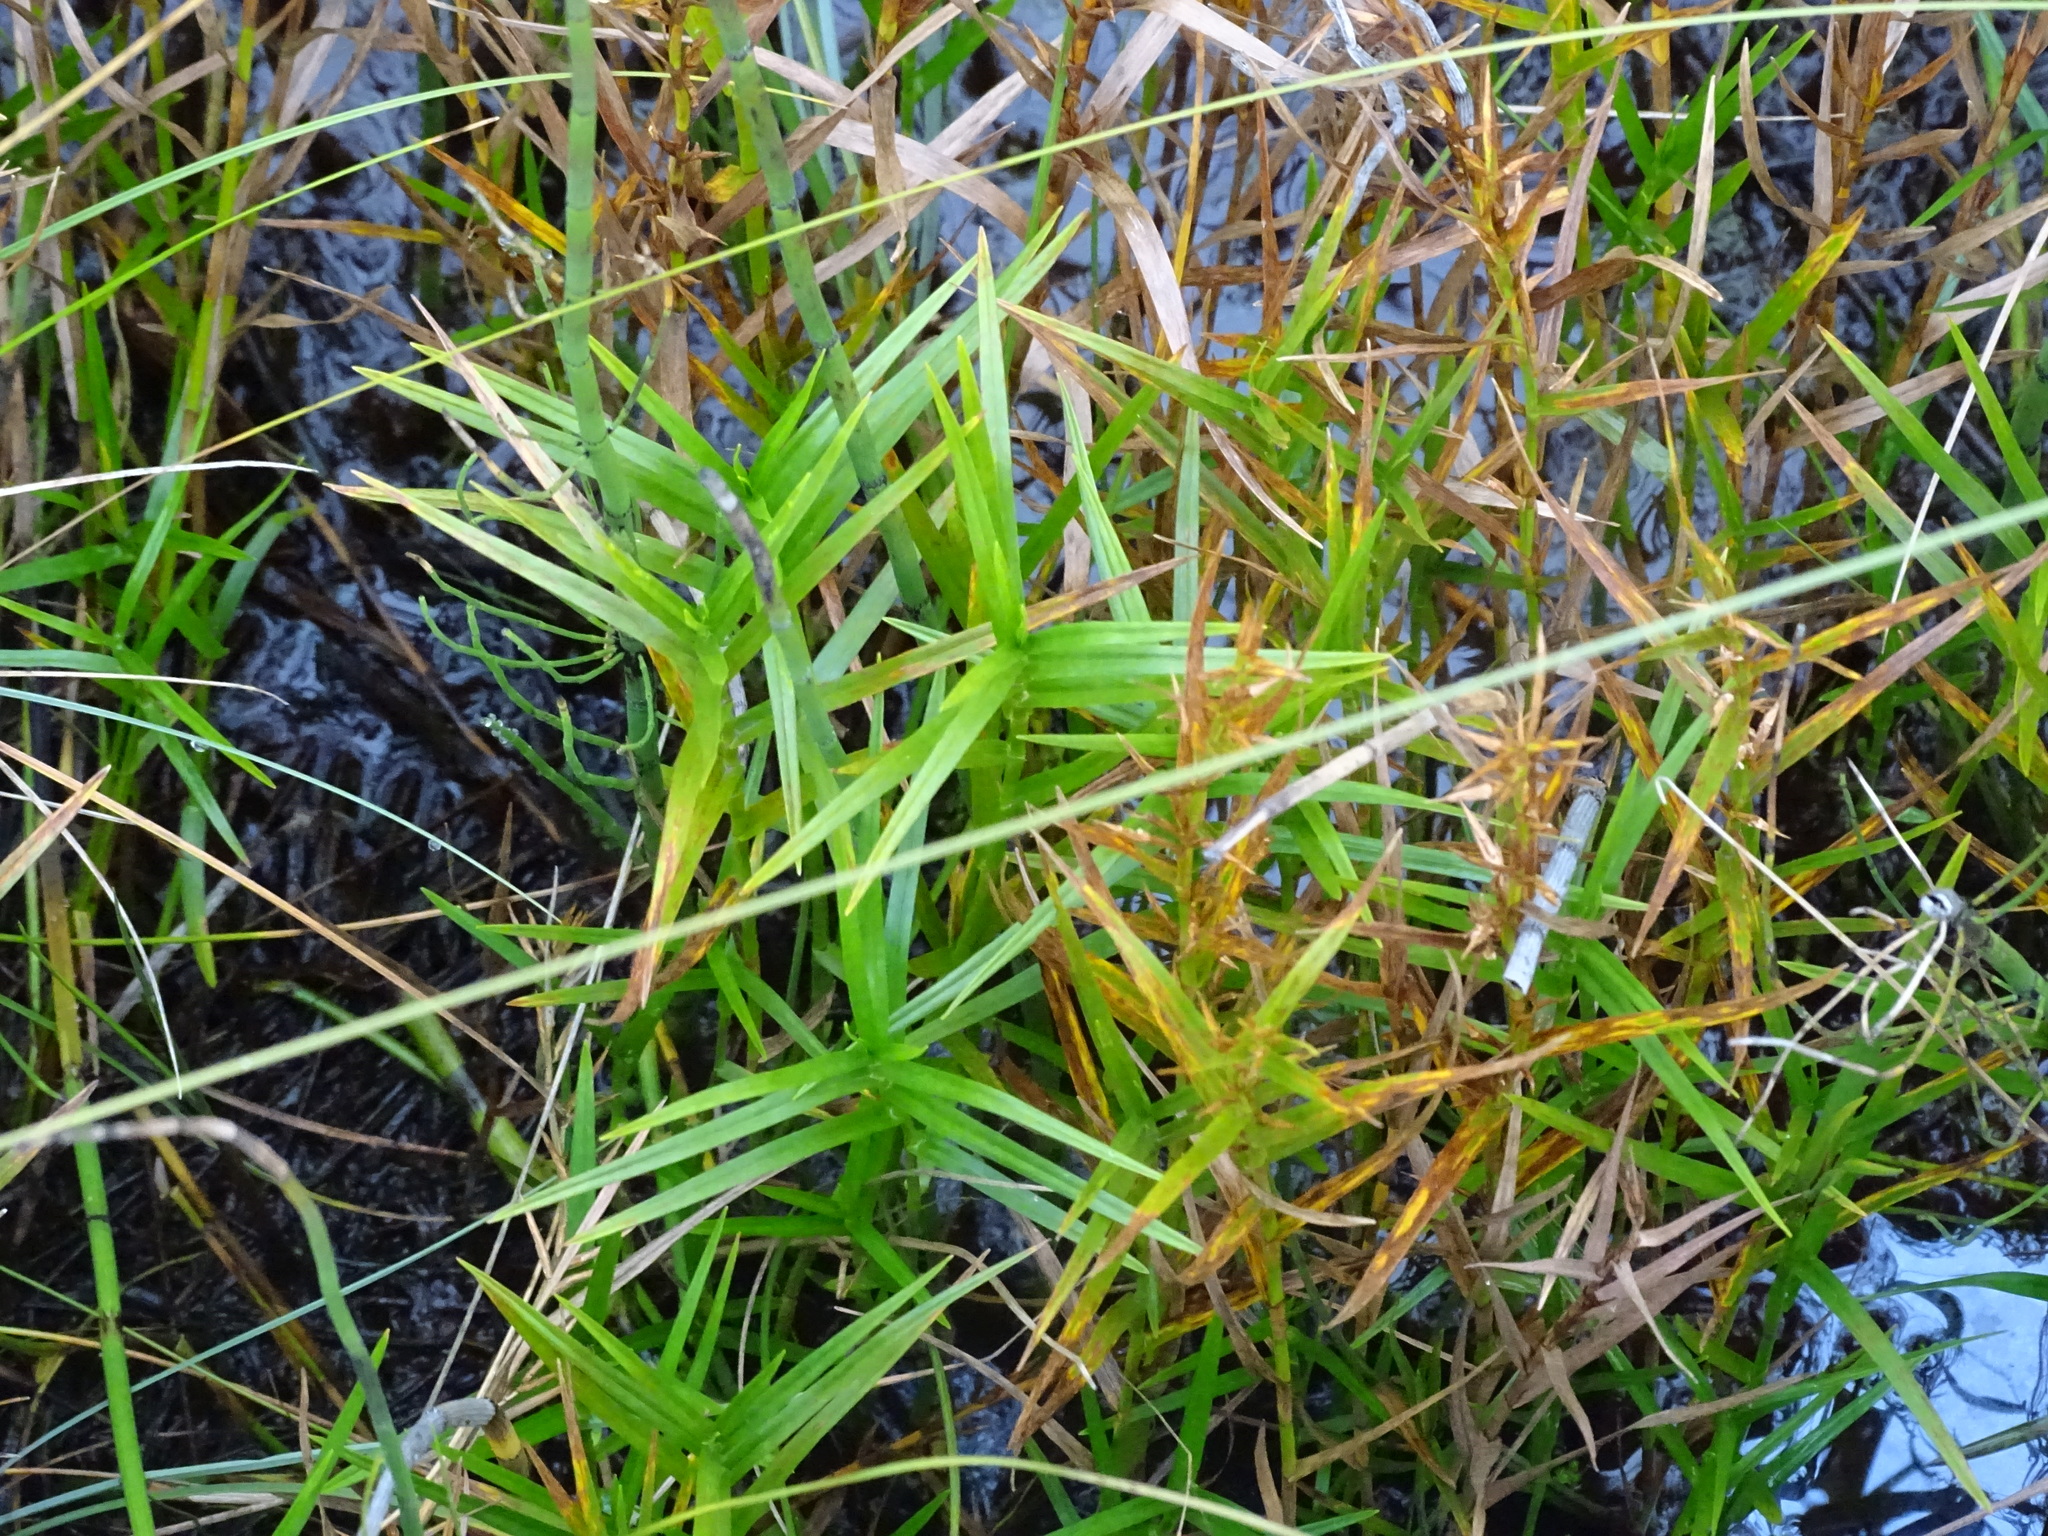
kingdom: Plantae
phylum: Tracheophyta
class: Liliopsida
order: Poales
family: Cyperaceae
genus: Dulichium
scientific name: Dulichium arundinaceum
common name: Three-way sedge
